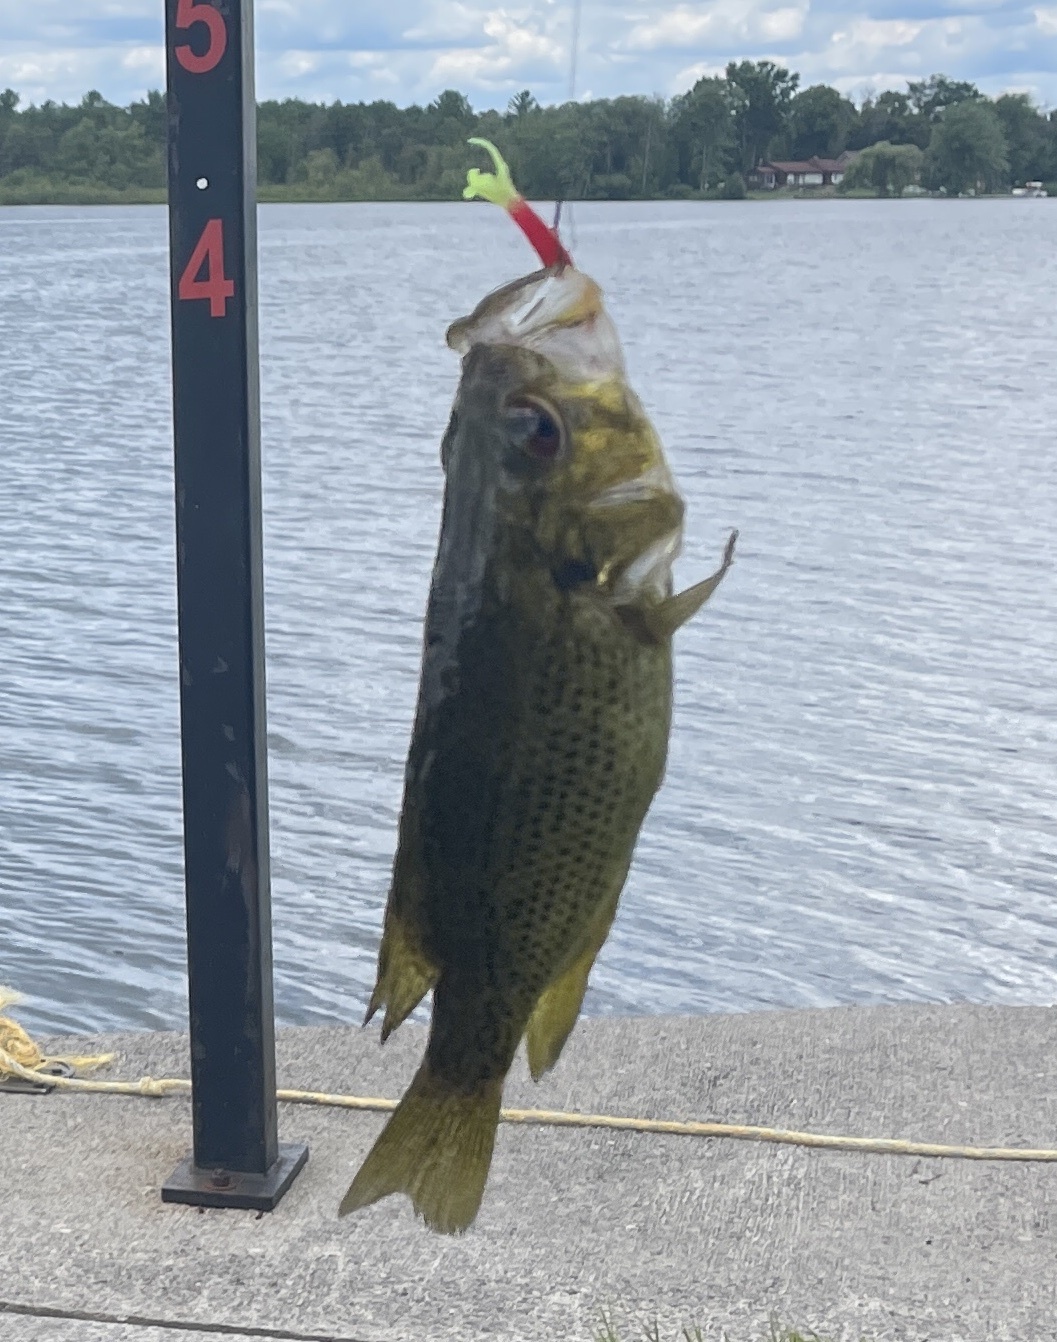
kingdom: Animalia
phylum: Chordata
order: Perciformes
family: Centrarchidae
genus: Ambloplites
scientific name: Ambloplites rupestris
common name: Rock bass
